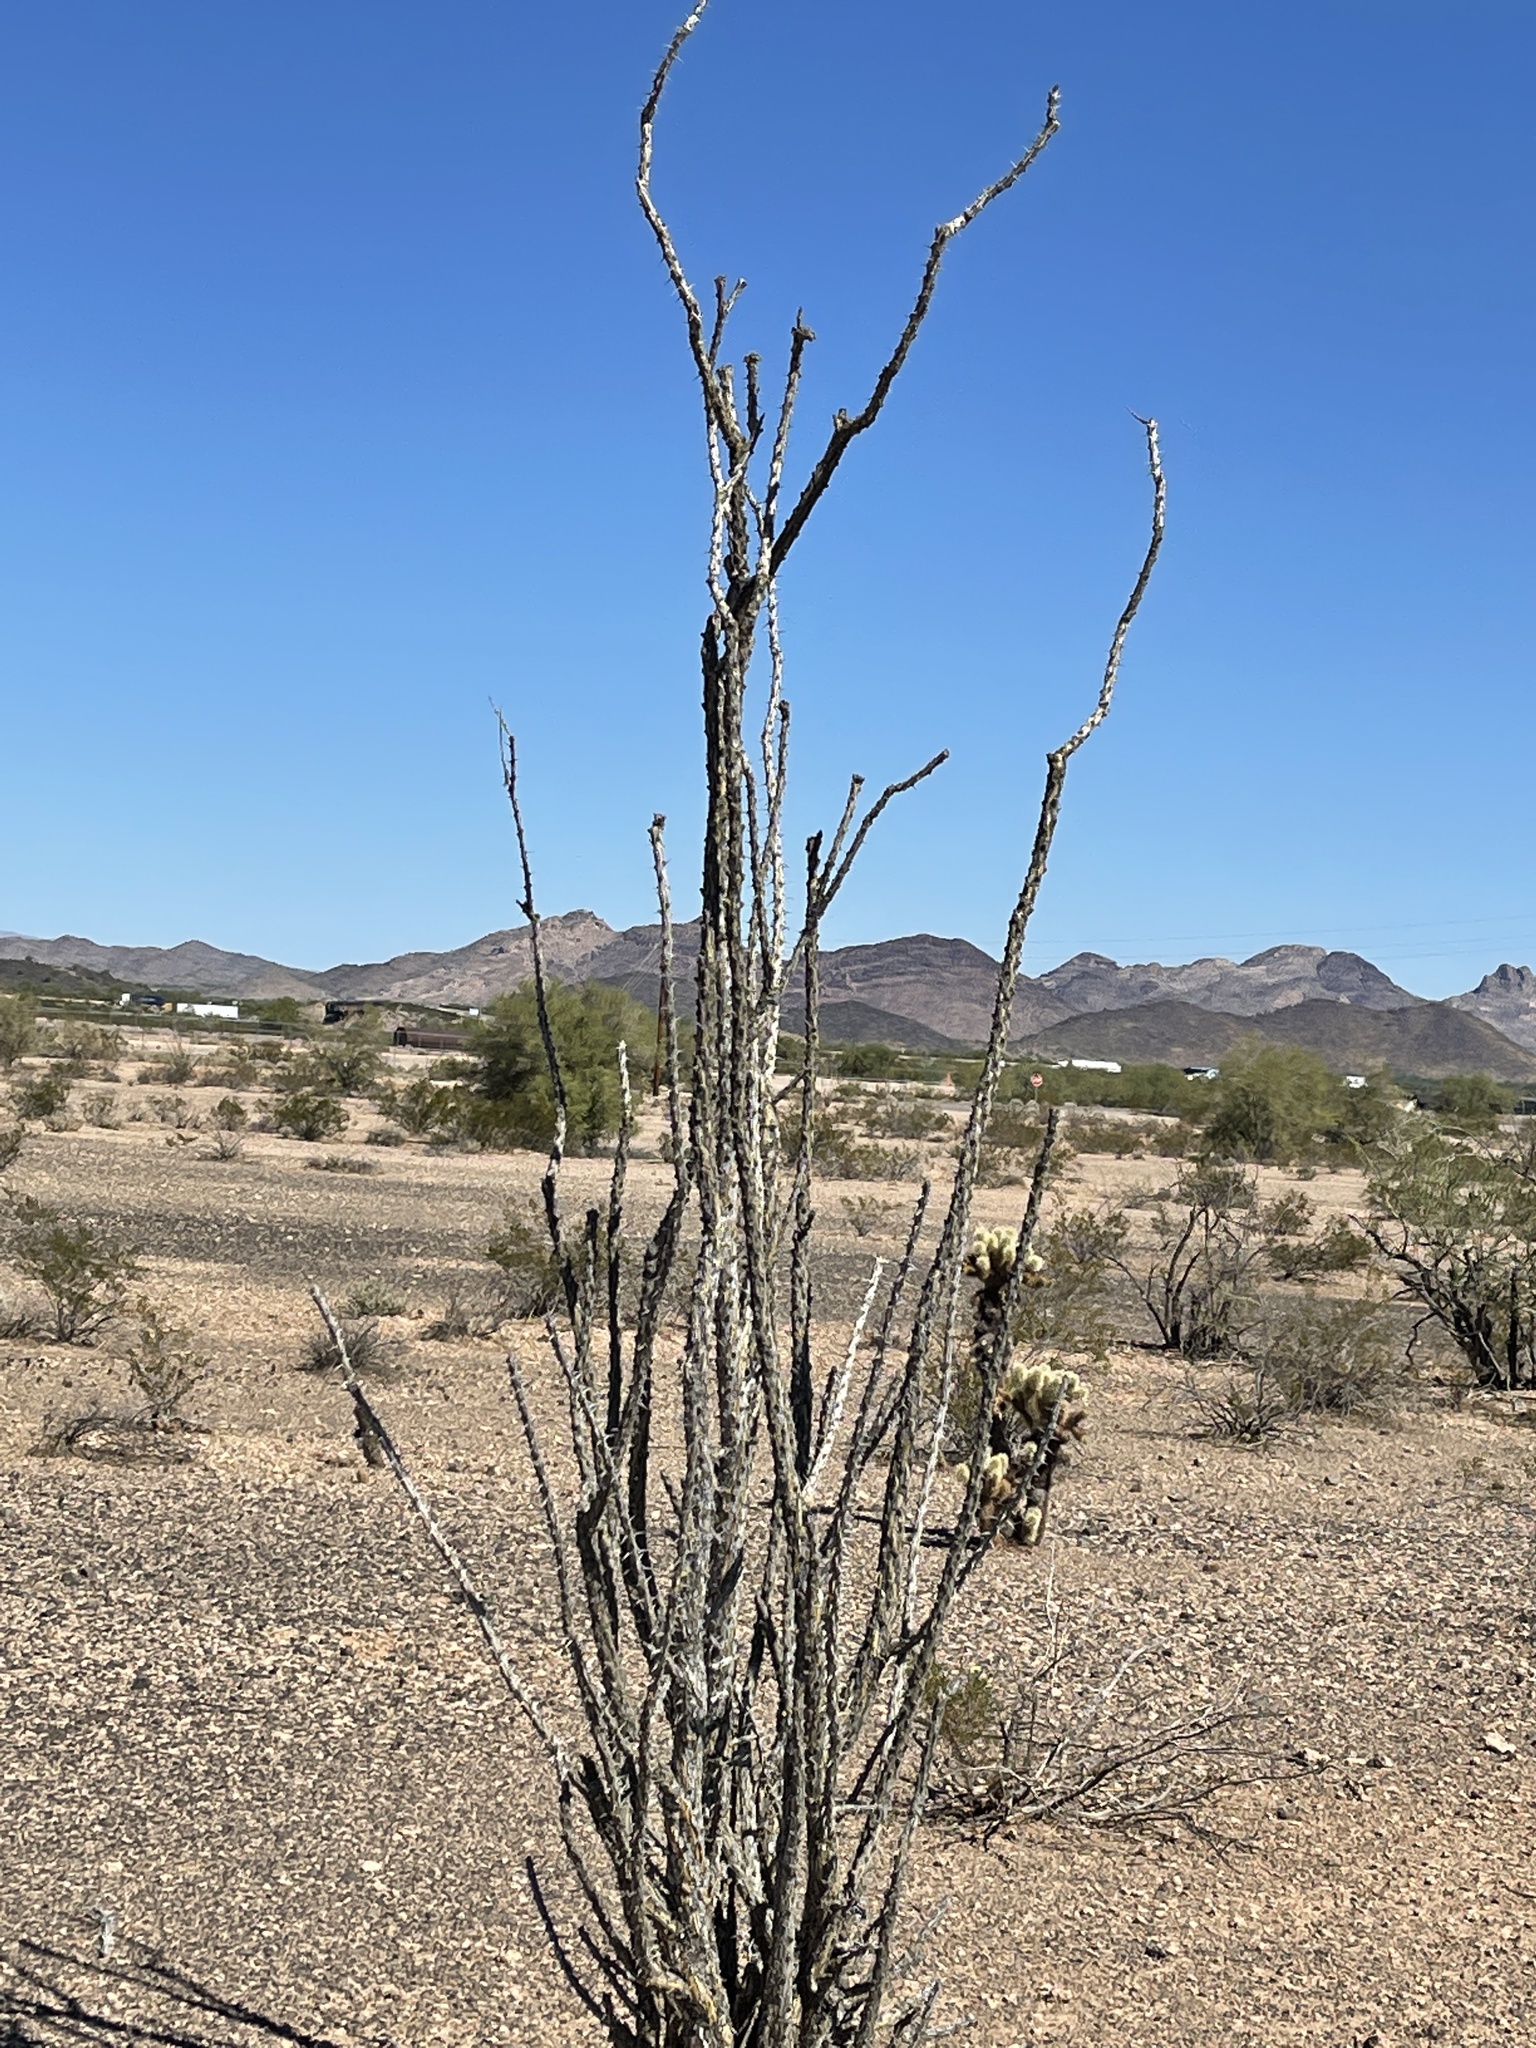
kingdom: Plantae
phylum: Tracheophyta
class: Magnoliopsida
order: Ericales
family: Fouquieriaceae
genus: Fouquieria
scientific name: Fouquieria splendens
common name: Vine-cactus
